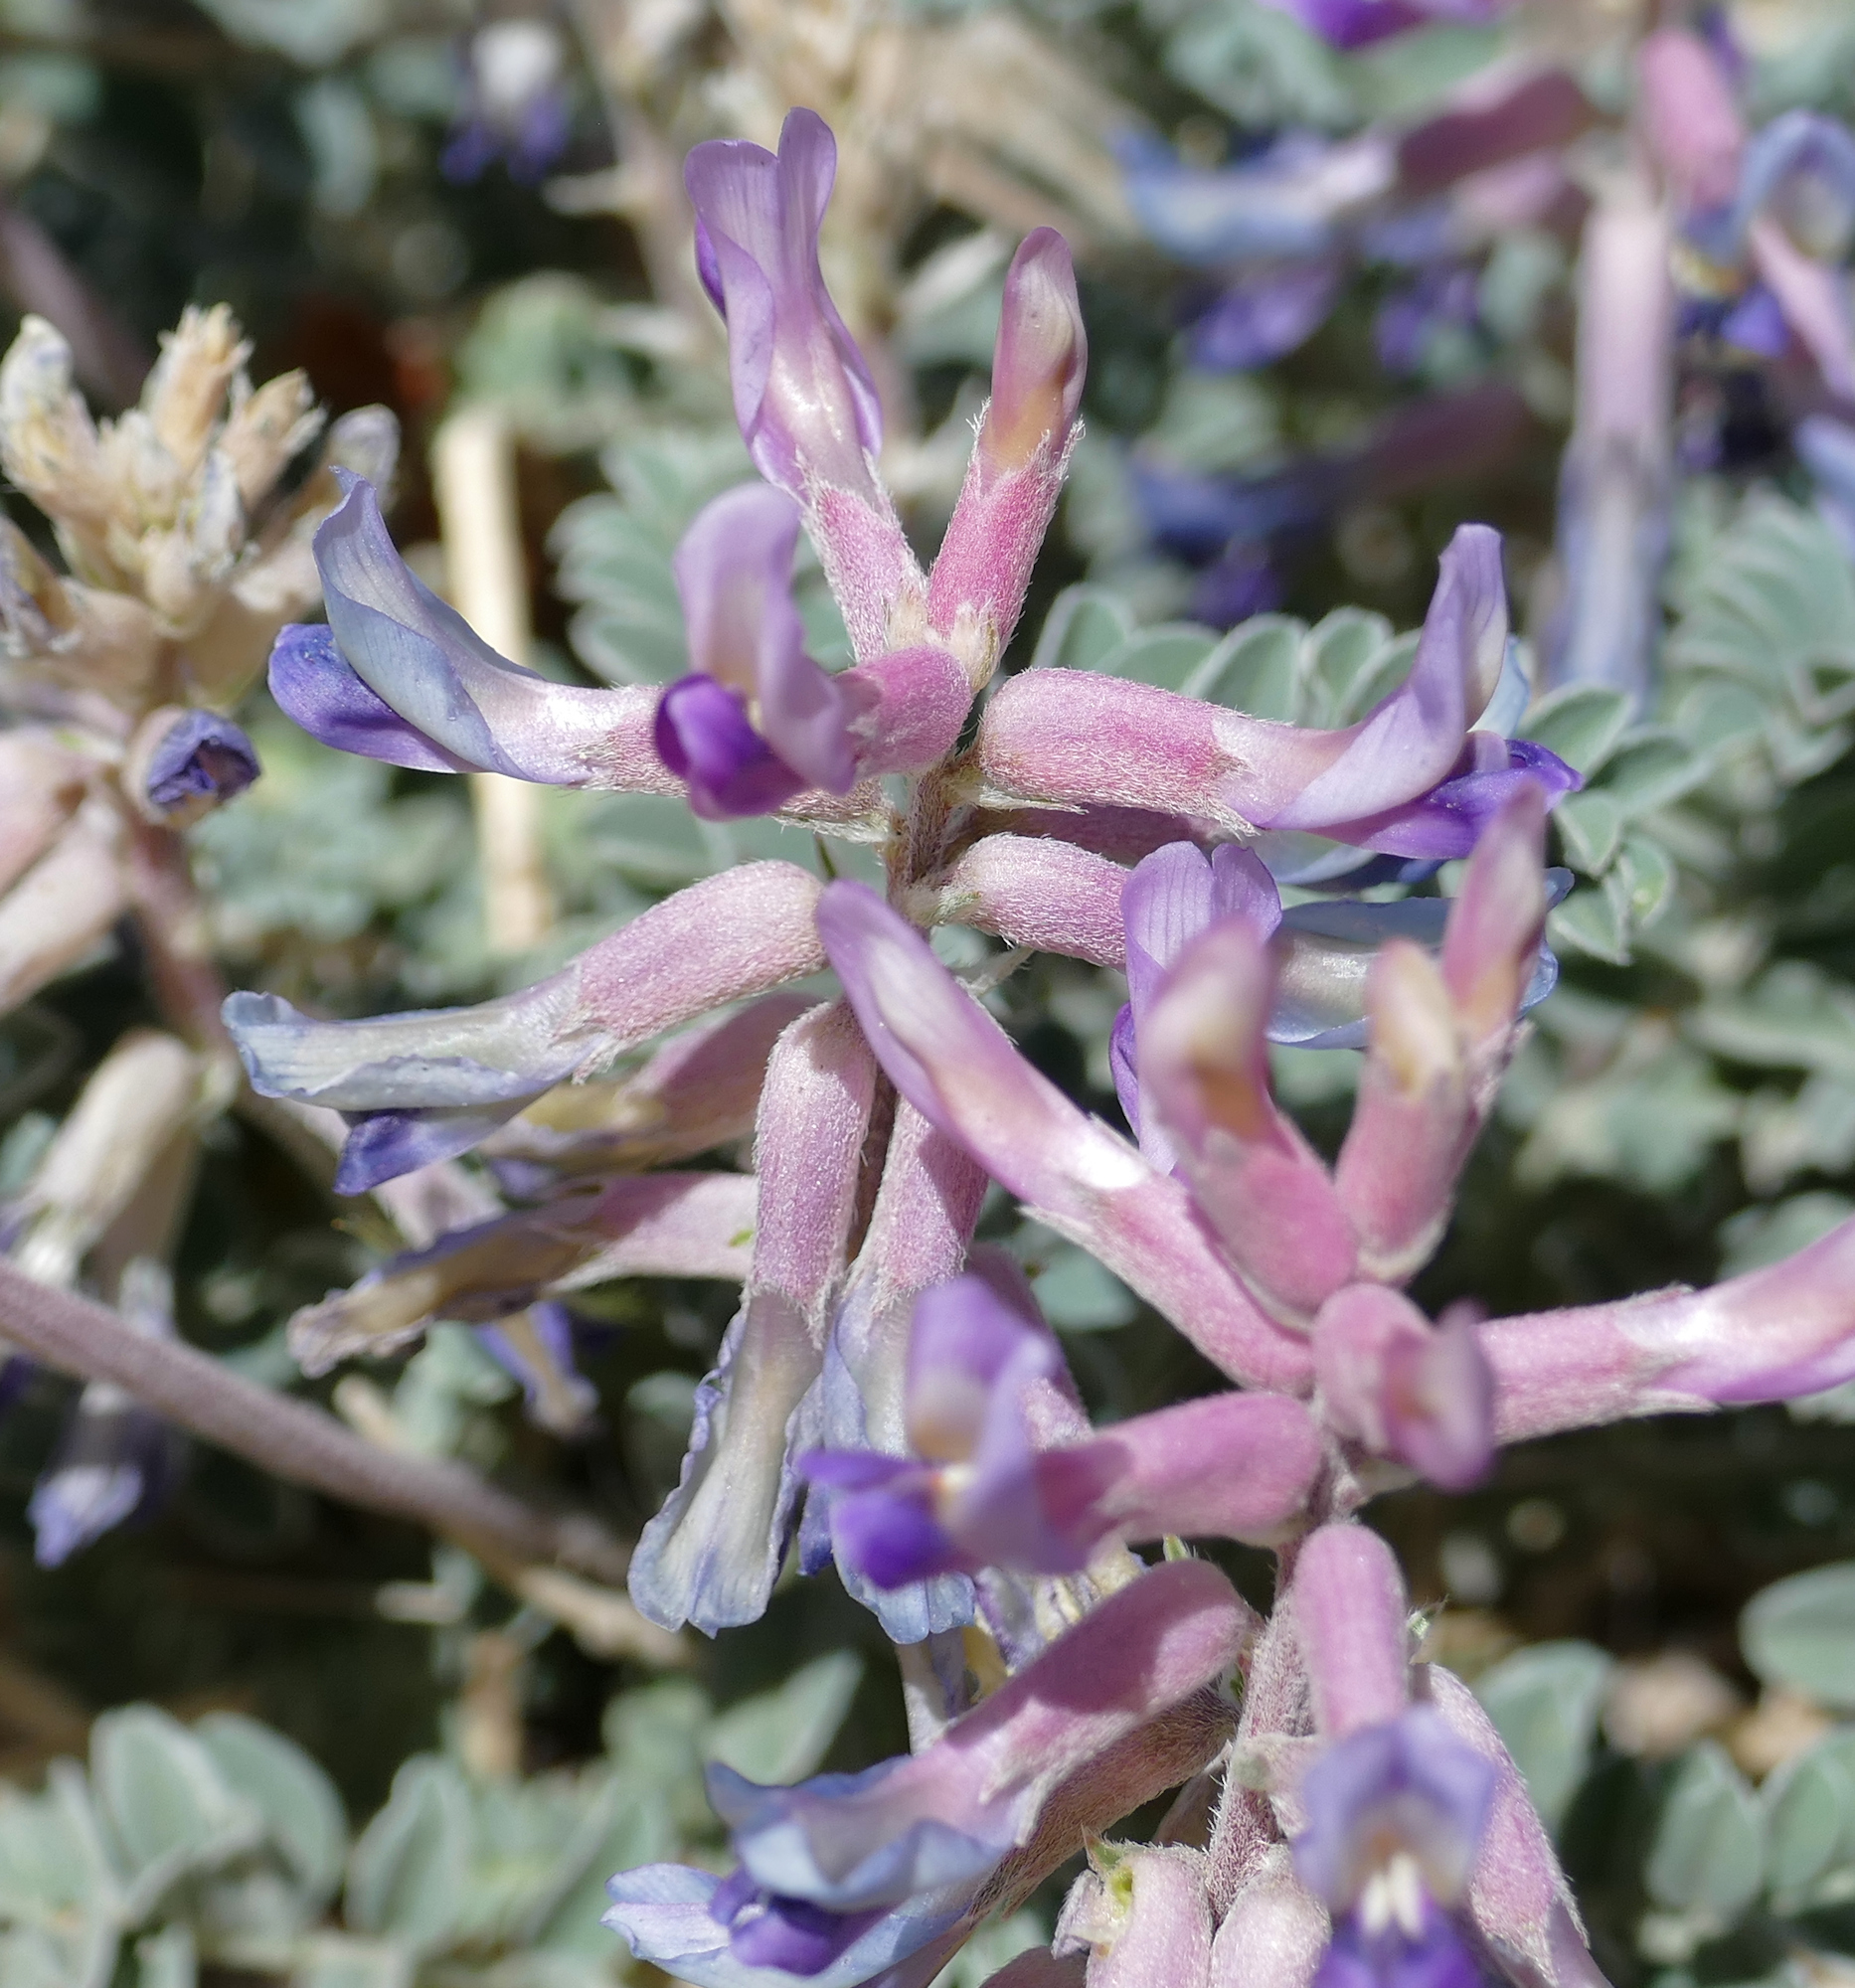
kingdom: Plantae
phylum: Tracheophyta
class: Magnoliopsida
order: Fabales
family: Fabaceae
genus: Astragalus
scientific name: Astragalus tephrodes
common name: Ashen milk-vetch
